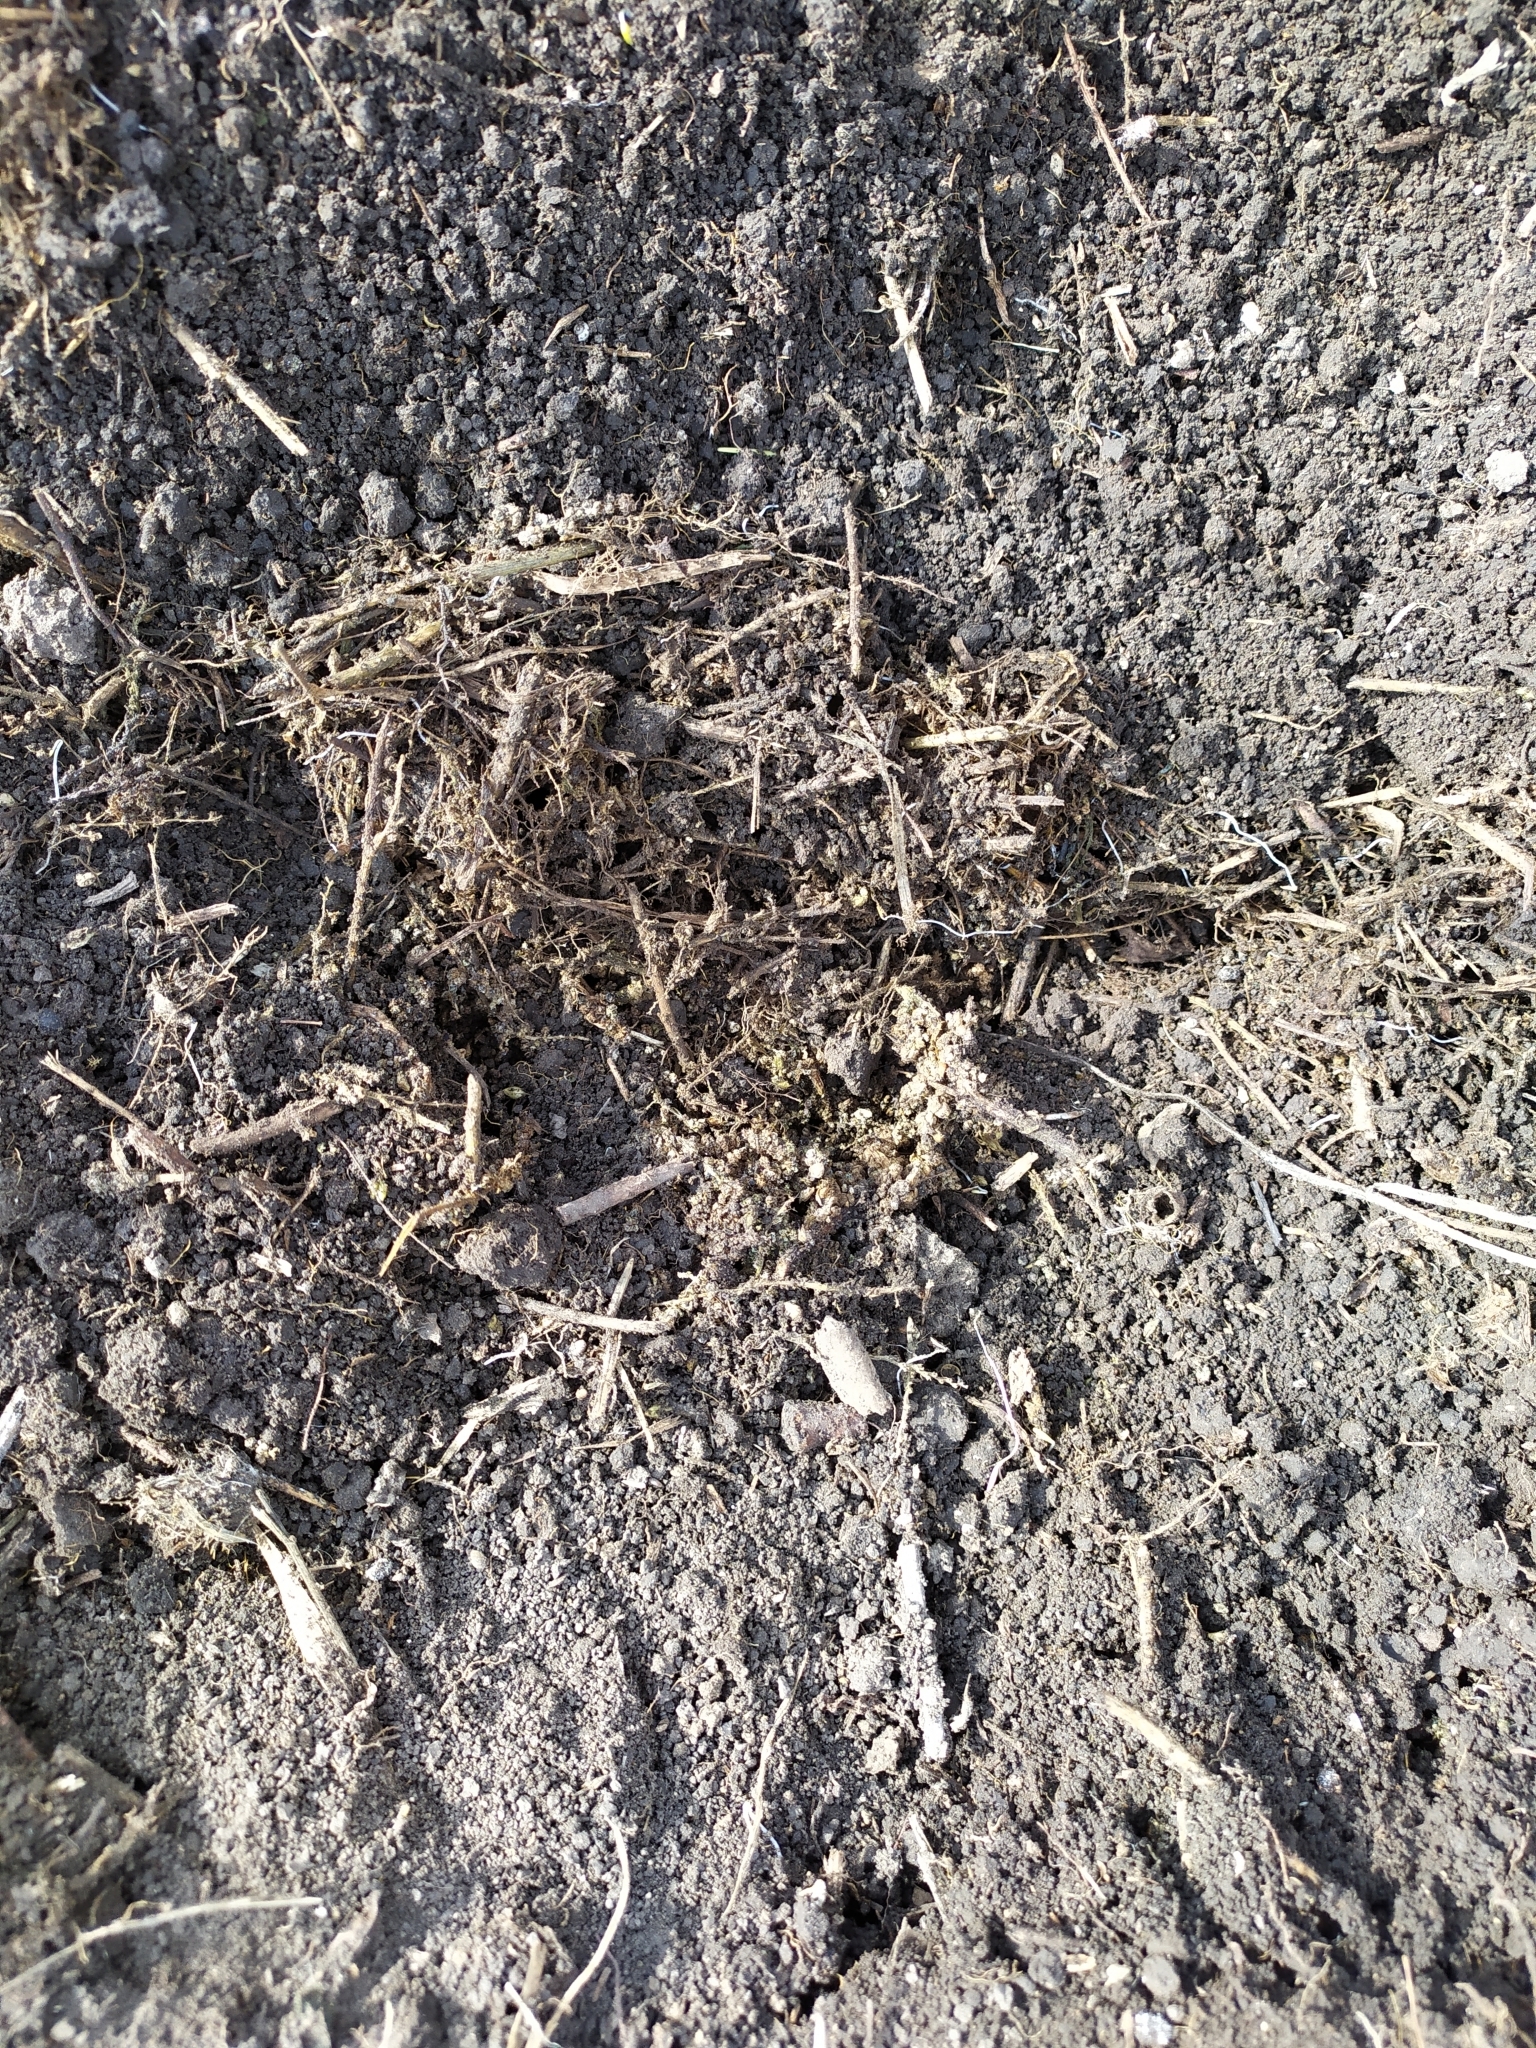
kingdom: Animalia
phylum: Chordata
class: Mammalia
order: Rodentia
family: Muridae
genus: Mus
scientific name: Mus spicilegus
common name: Mound-building mouse
